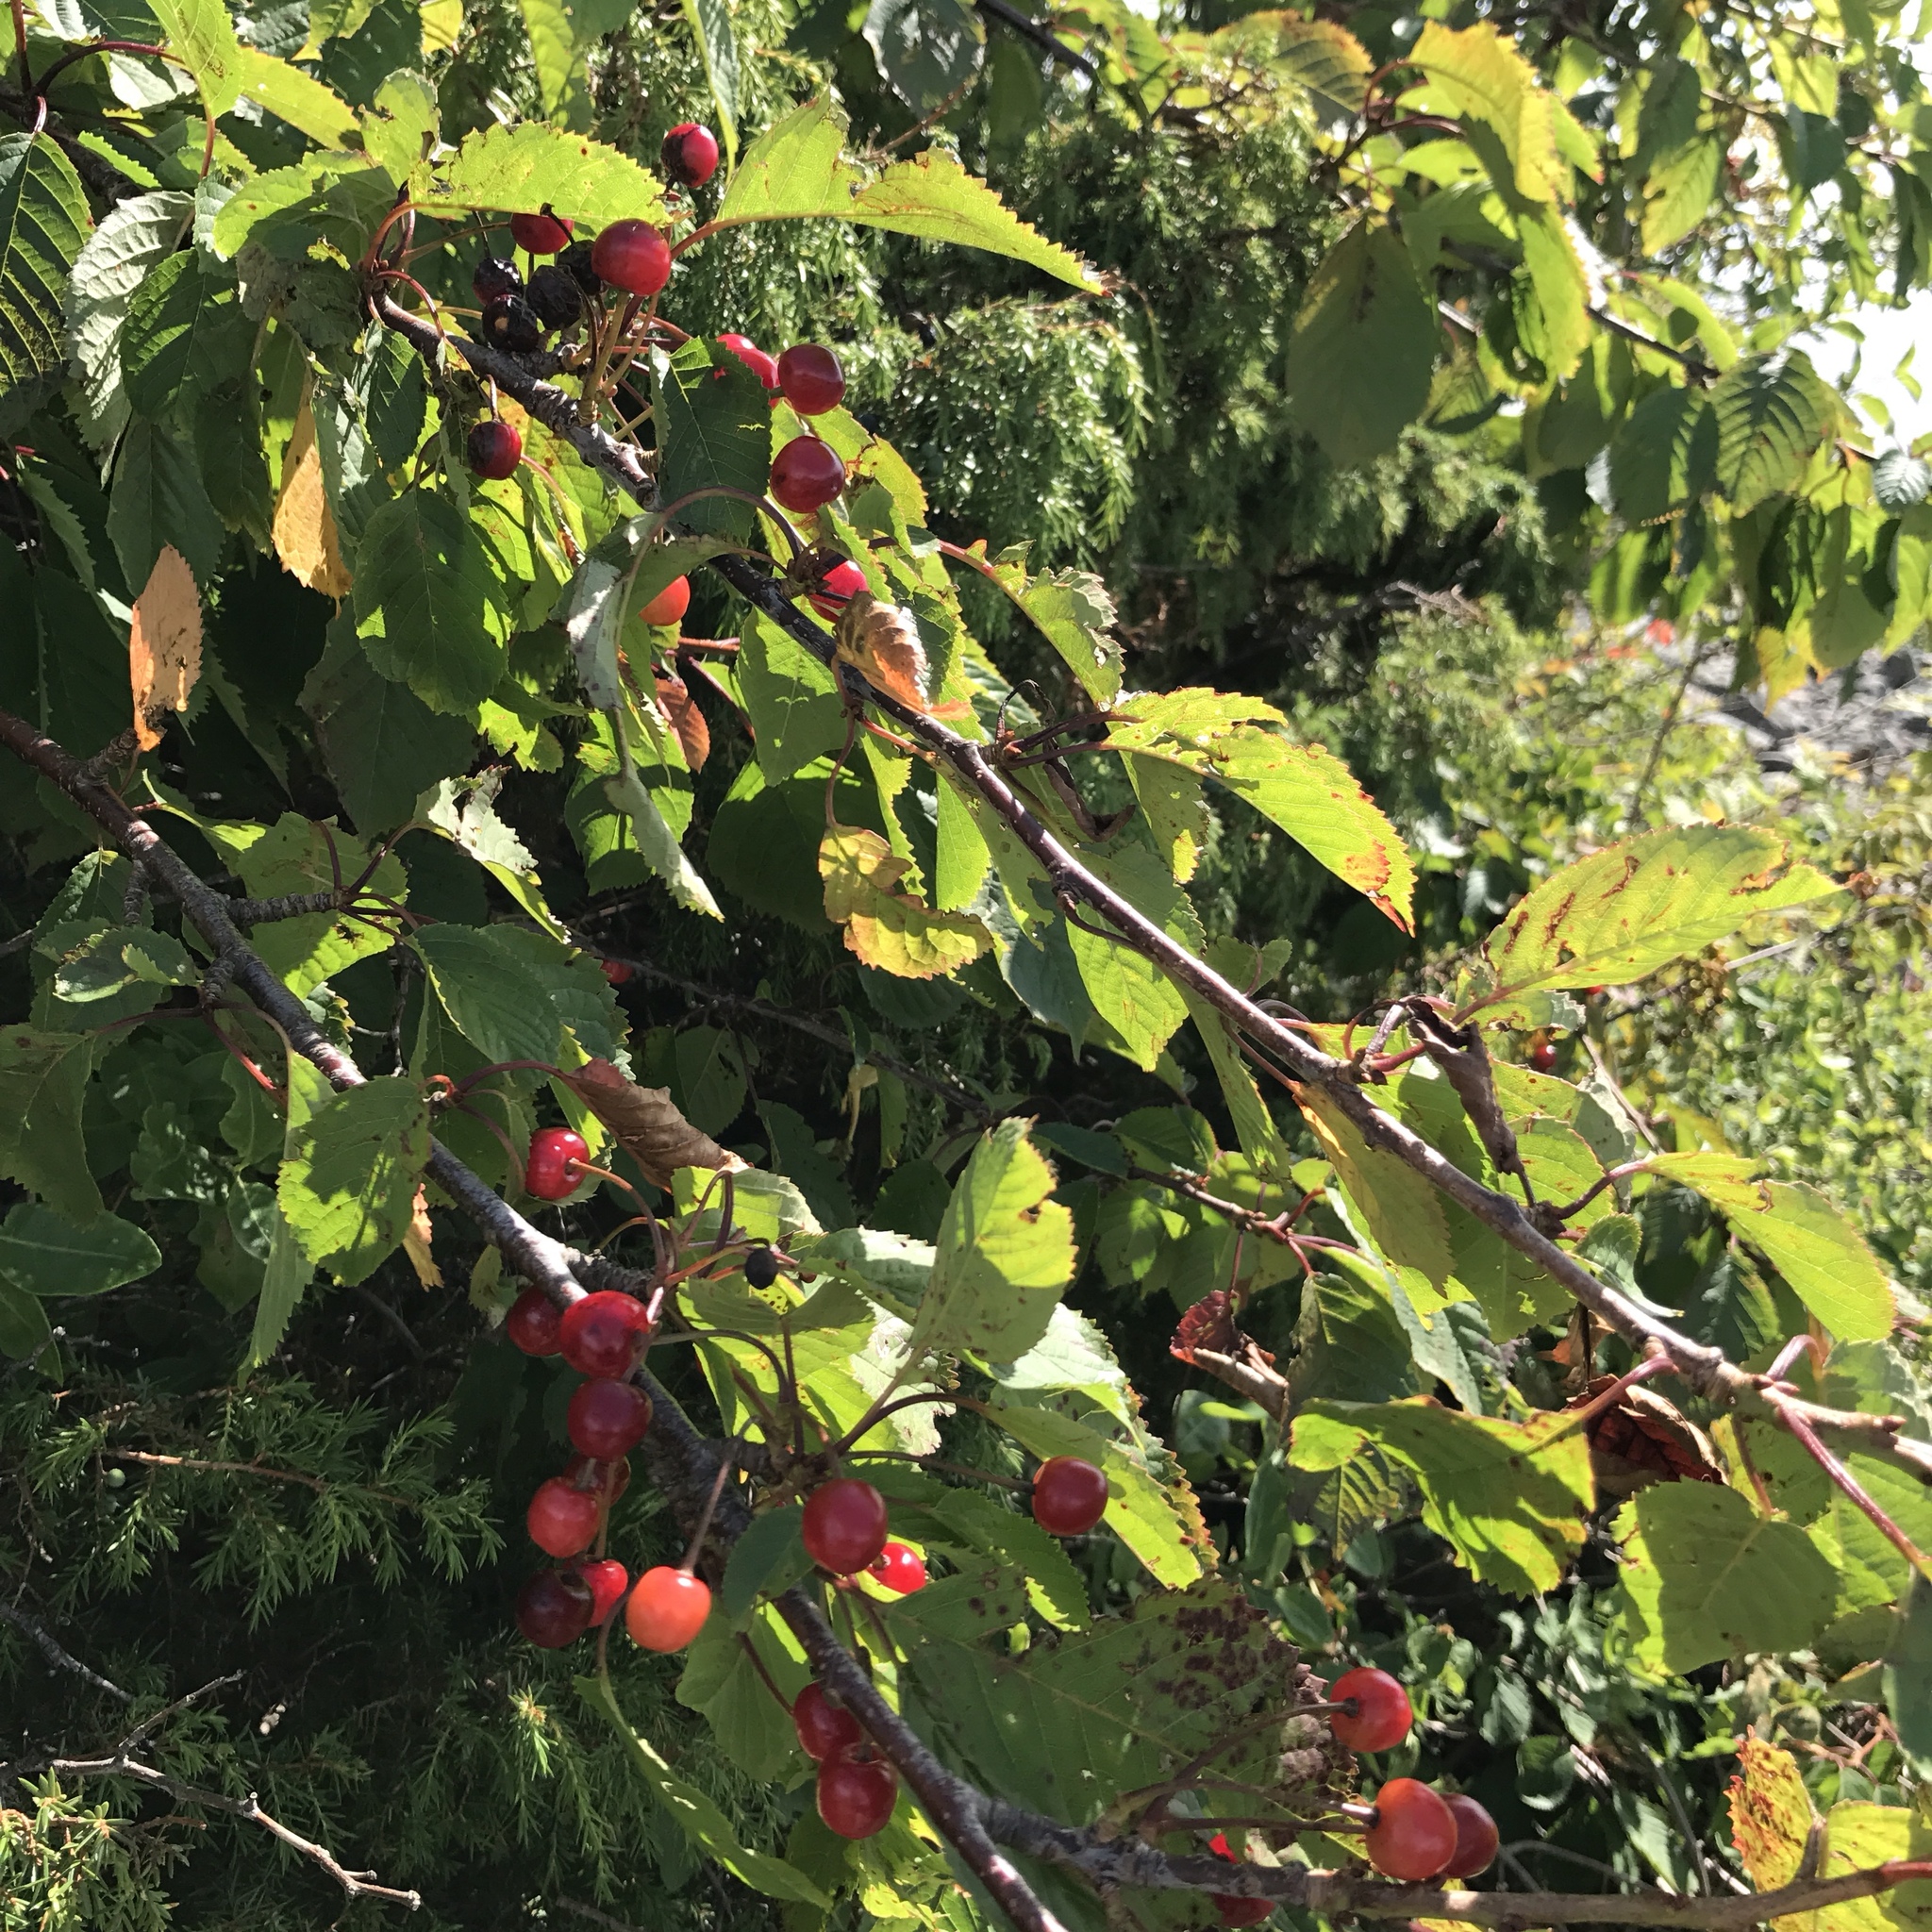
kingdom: Plantae
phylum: Tracheophyta
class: Magnoliopsida
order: Rosales
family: Rosaceae
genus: Prunus
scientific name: Prunus cerasus
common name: Morello cherry
